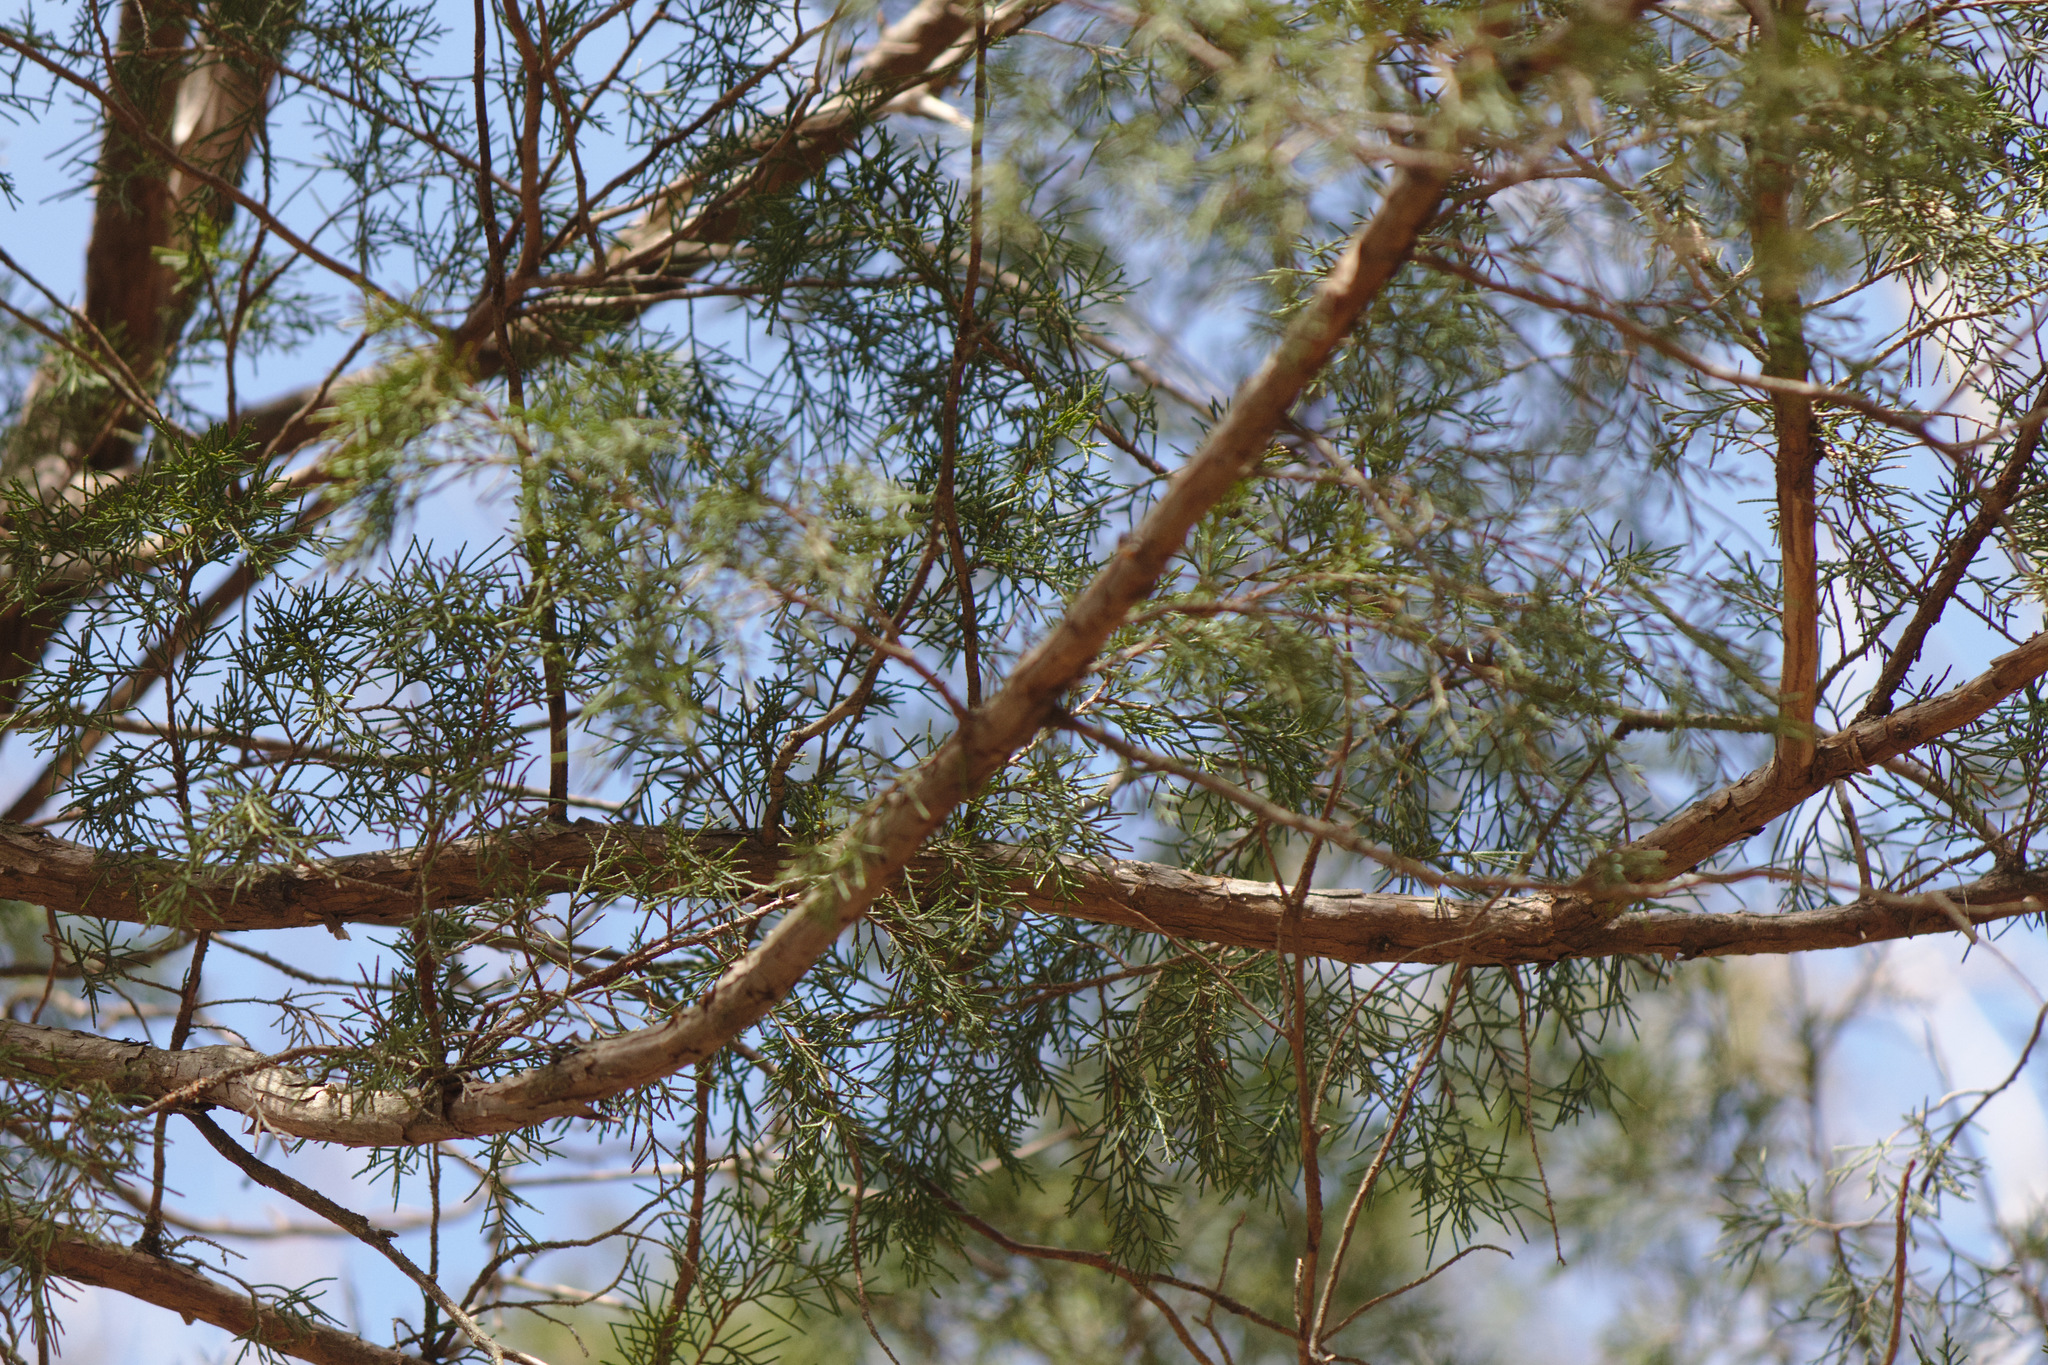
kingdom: Plantae
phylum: Tracheophyta
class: Pinopsida
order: Pinales
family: Cupressaceae
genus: Juniperus
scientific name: Juniperus virginiana
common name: Red juniper
